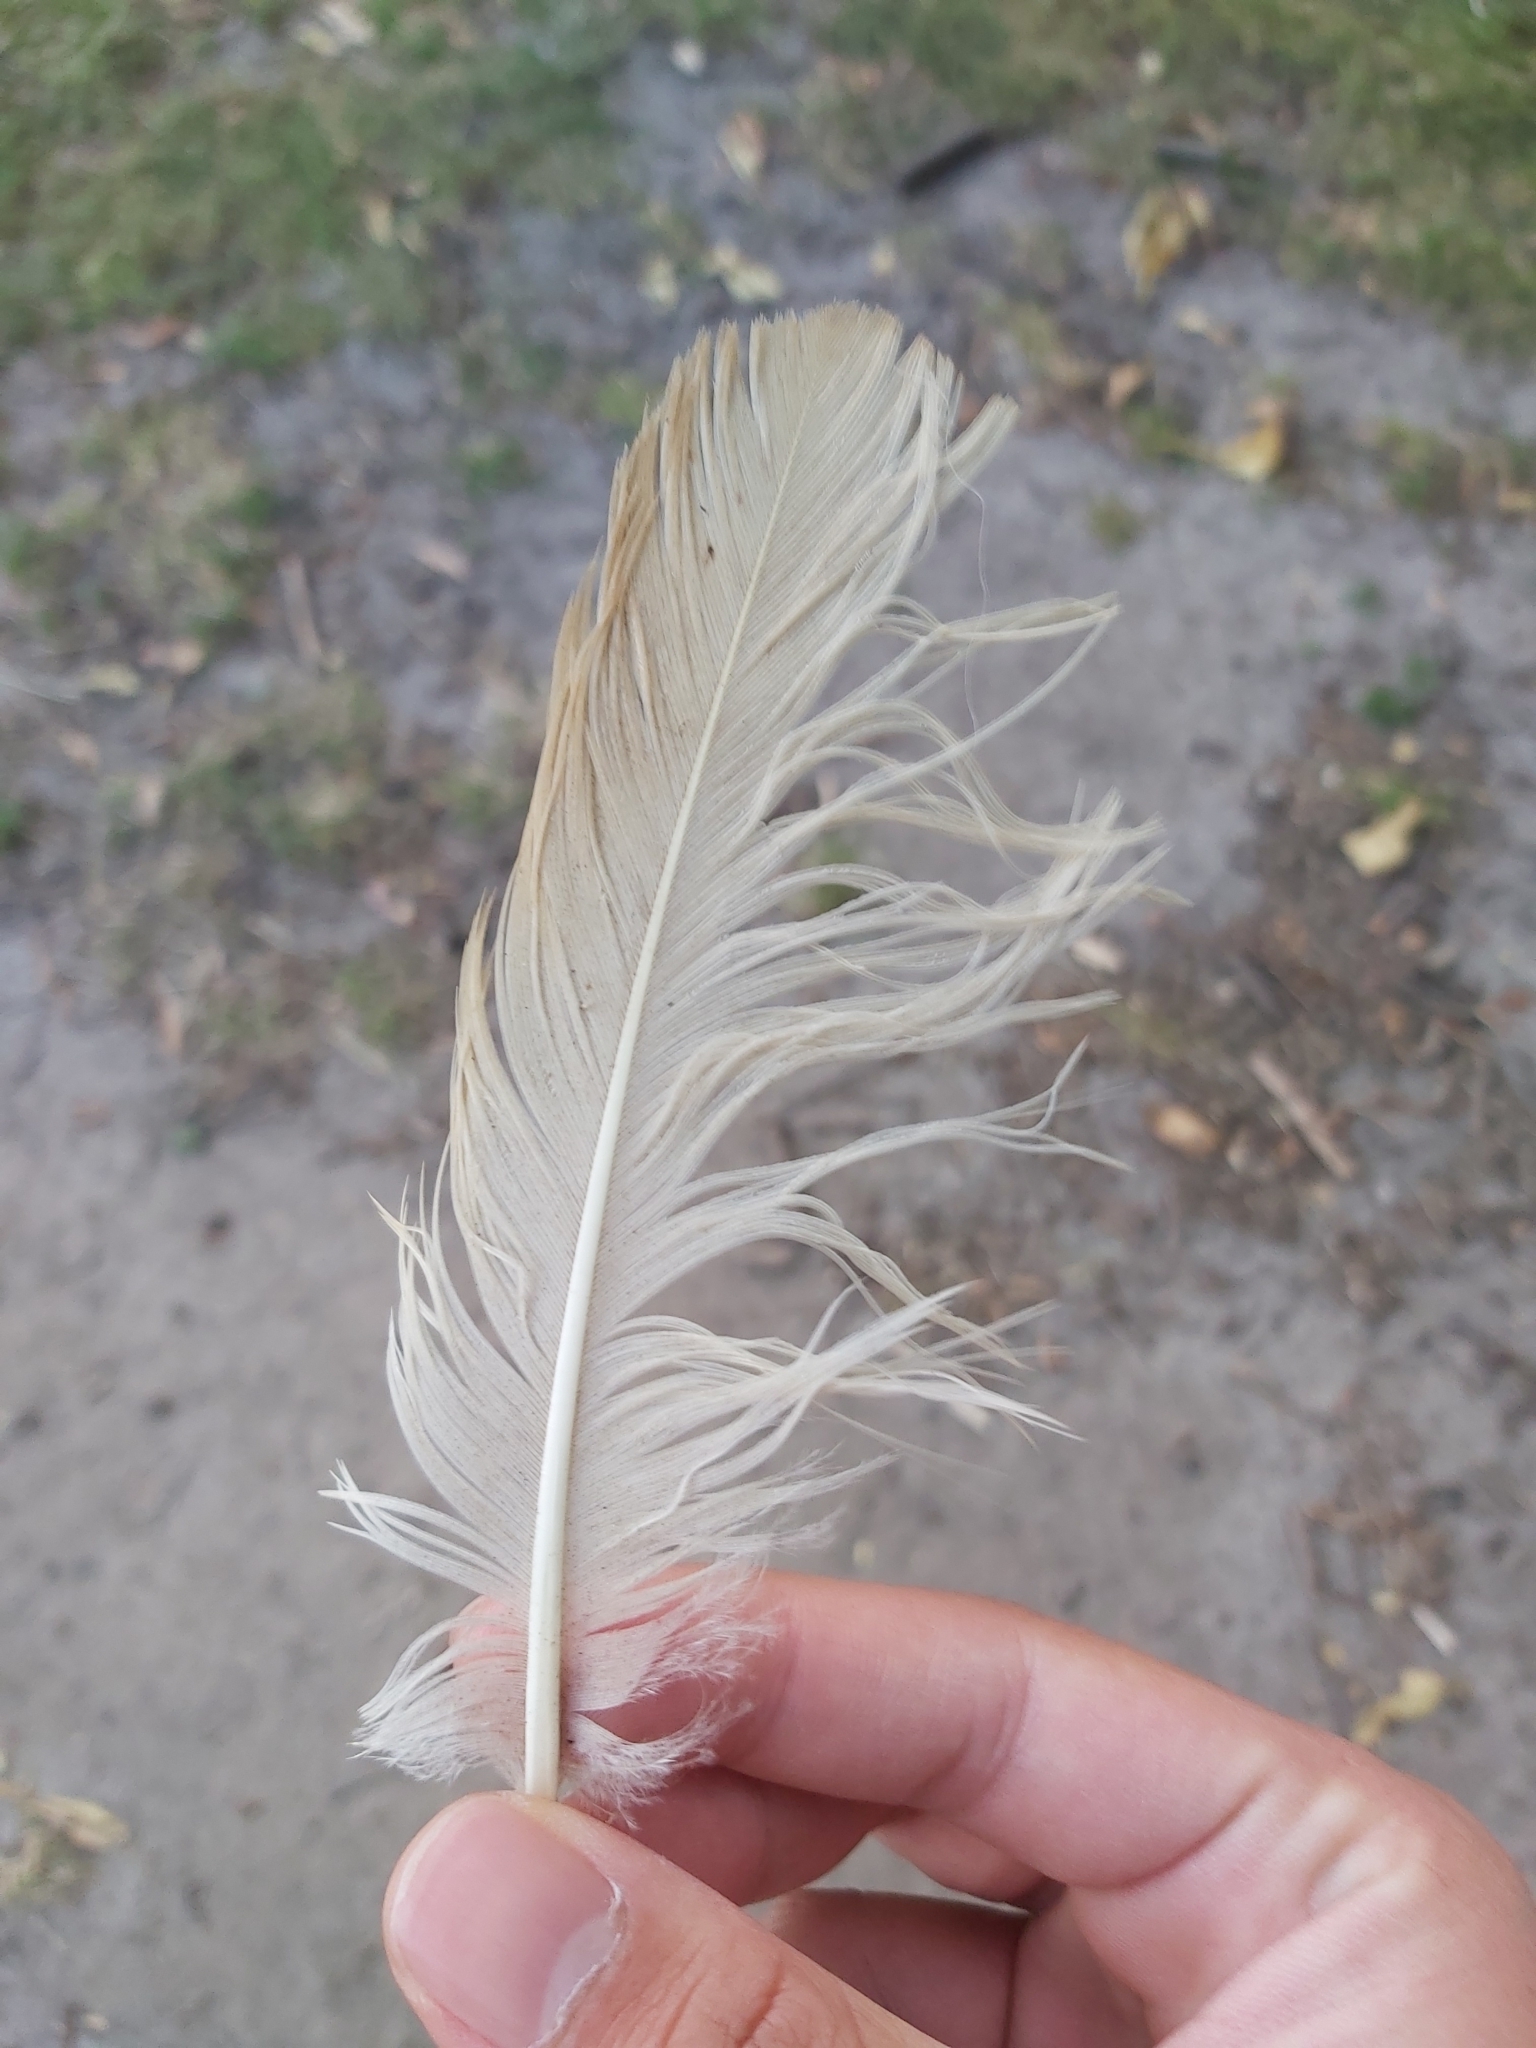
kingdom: Animalia
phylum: Chordata
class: Aves
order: Psittaciformes
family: Psittacidae
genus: Cacatua
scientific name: Cacatua galerita
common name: Sulphur-crested cockatoo
